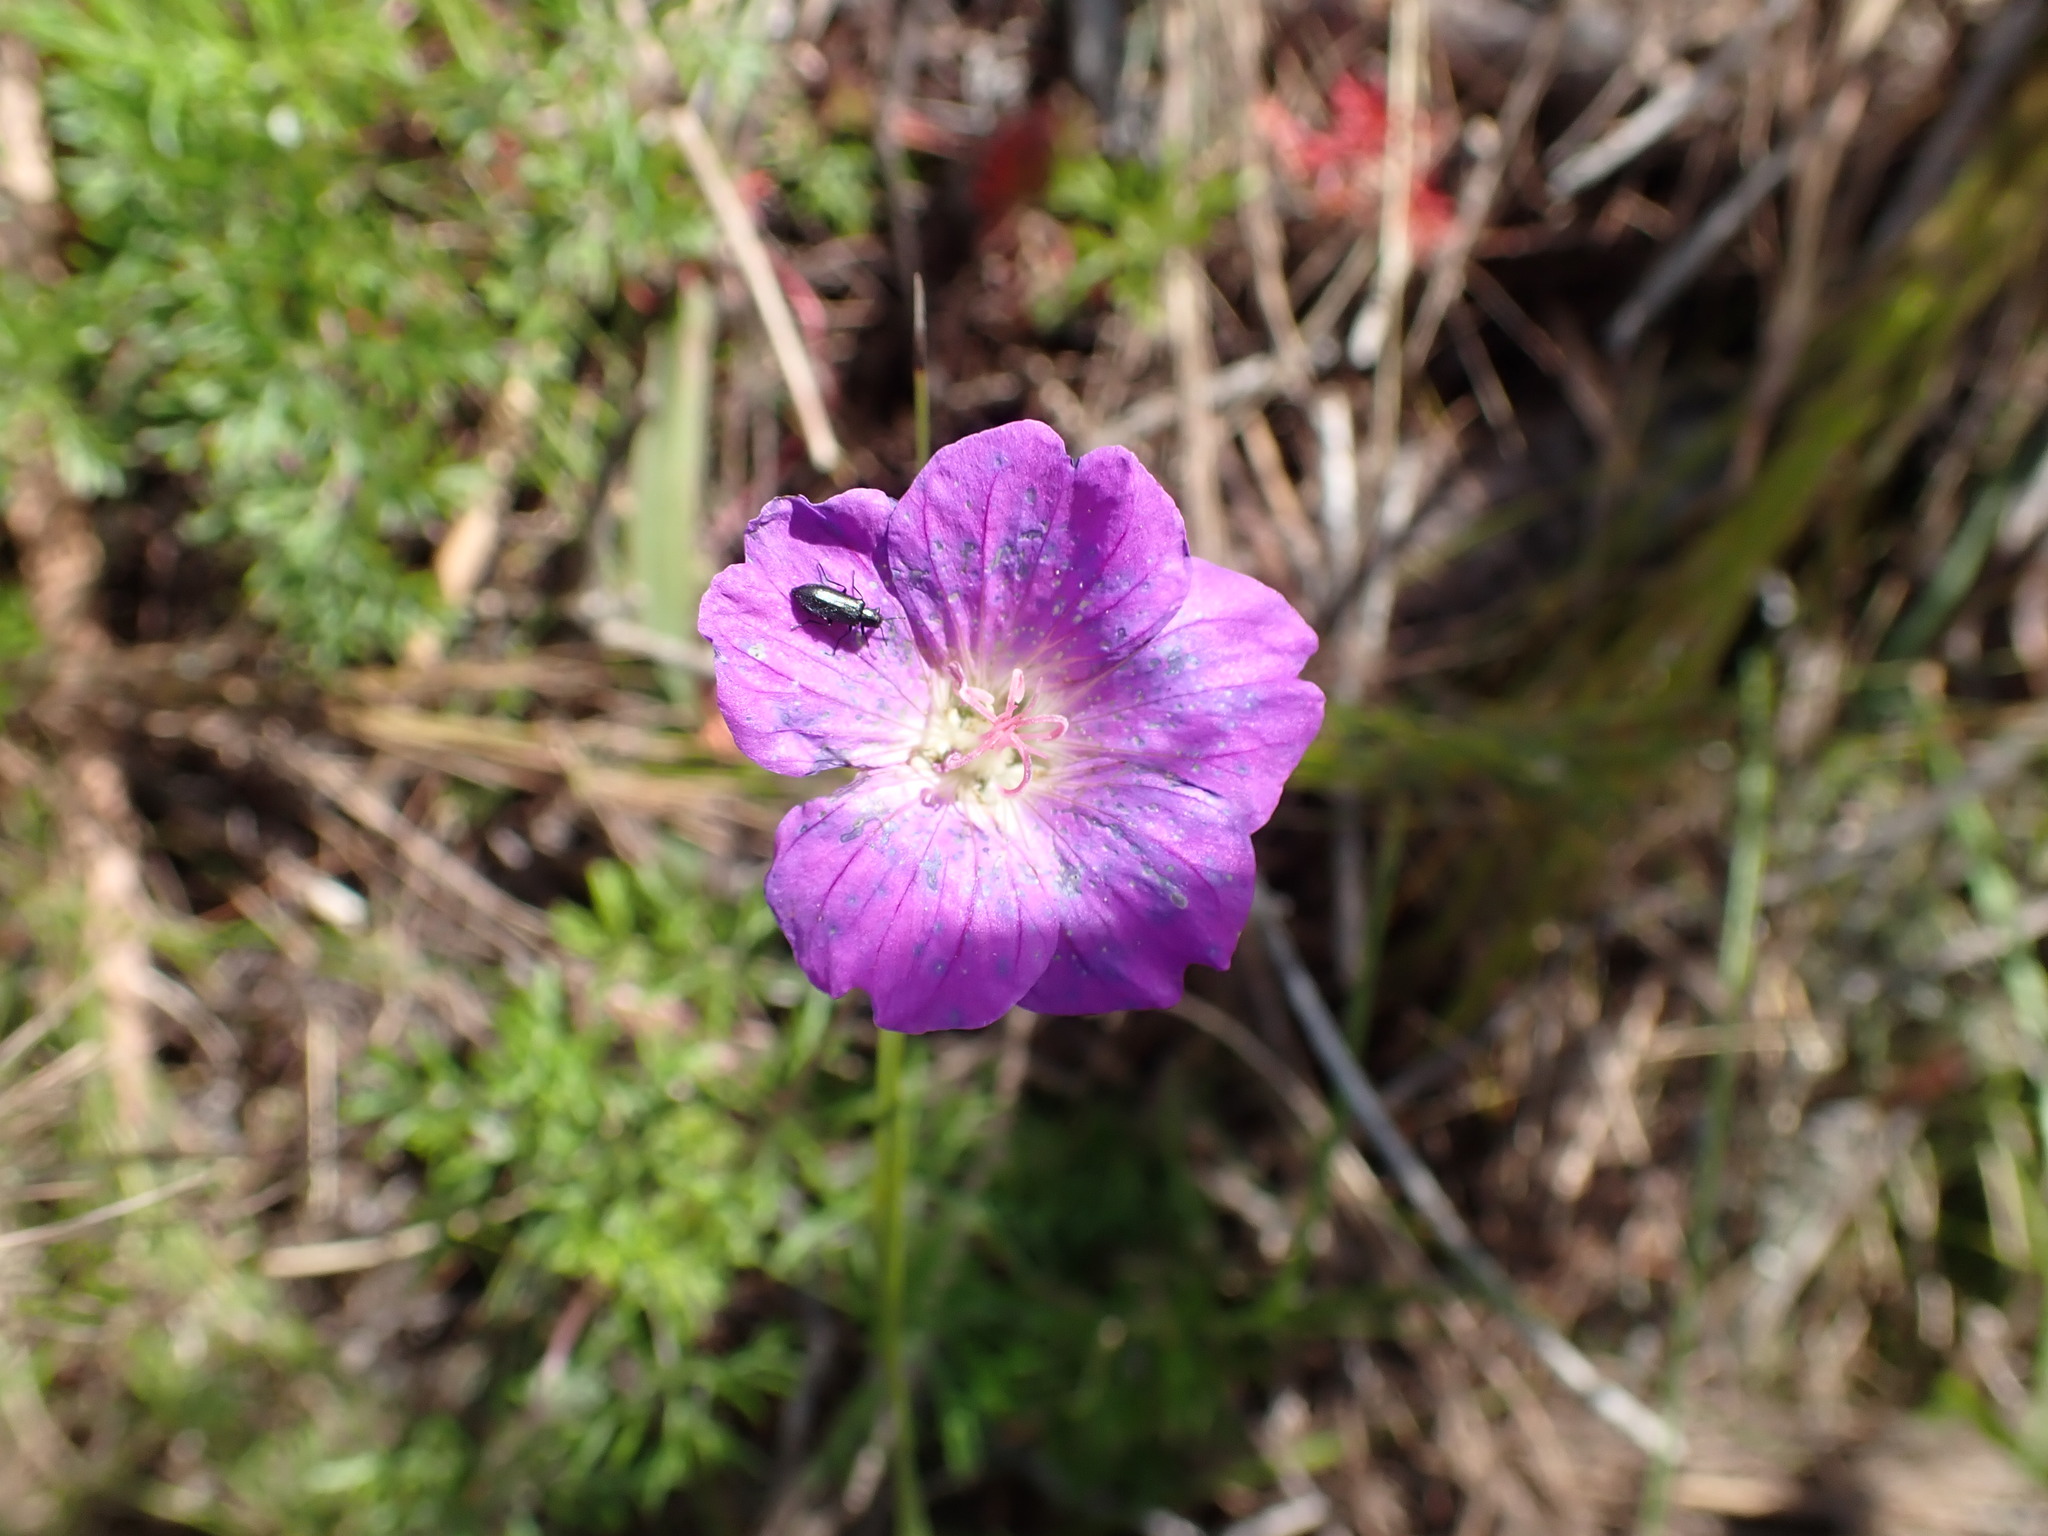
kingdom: Plantae
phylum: Tracheophyta
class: Magnoliopsida
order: Geraniales
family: Geraniaceae
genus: Geranium
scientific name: Geranium incanum
